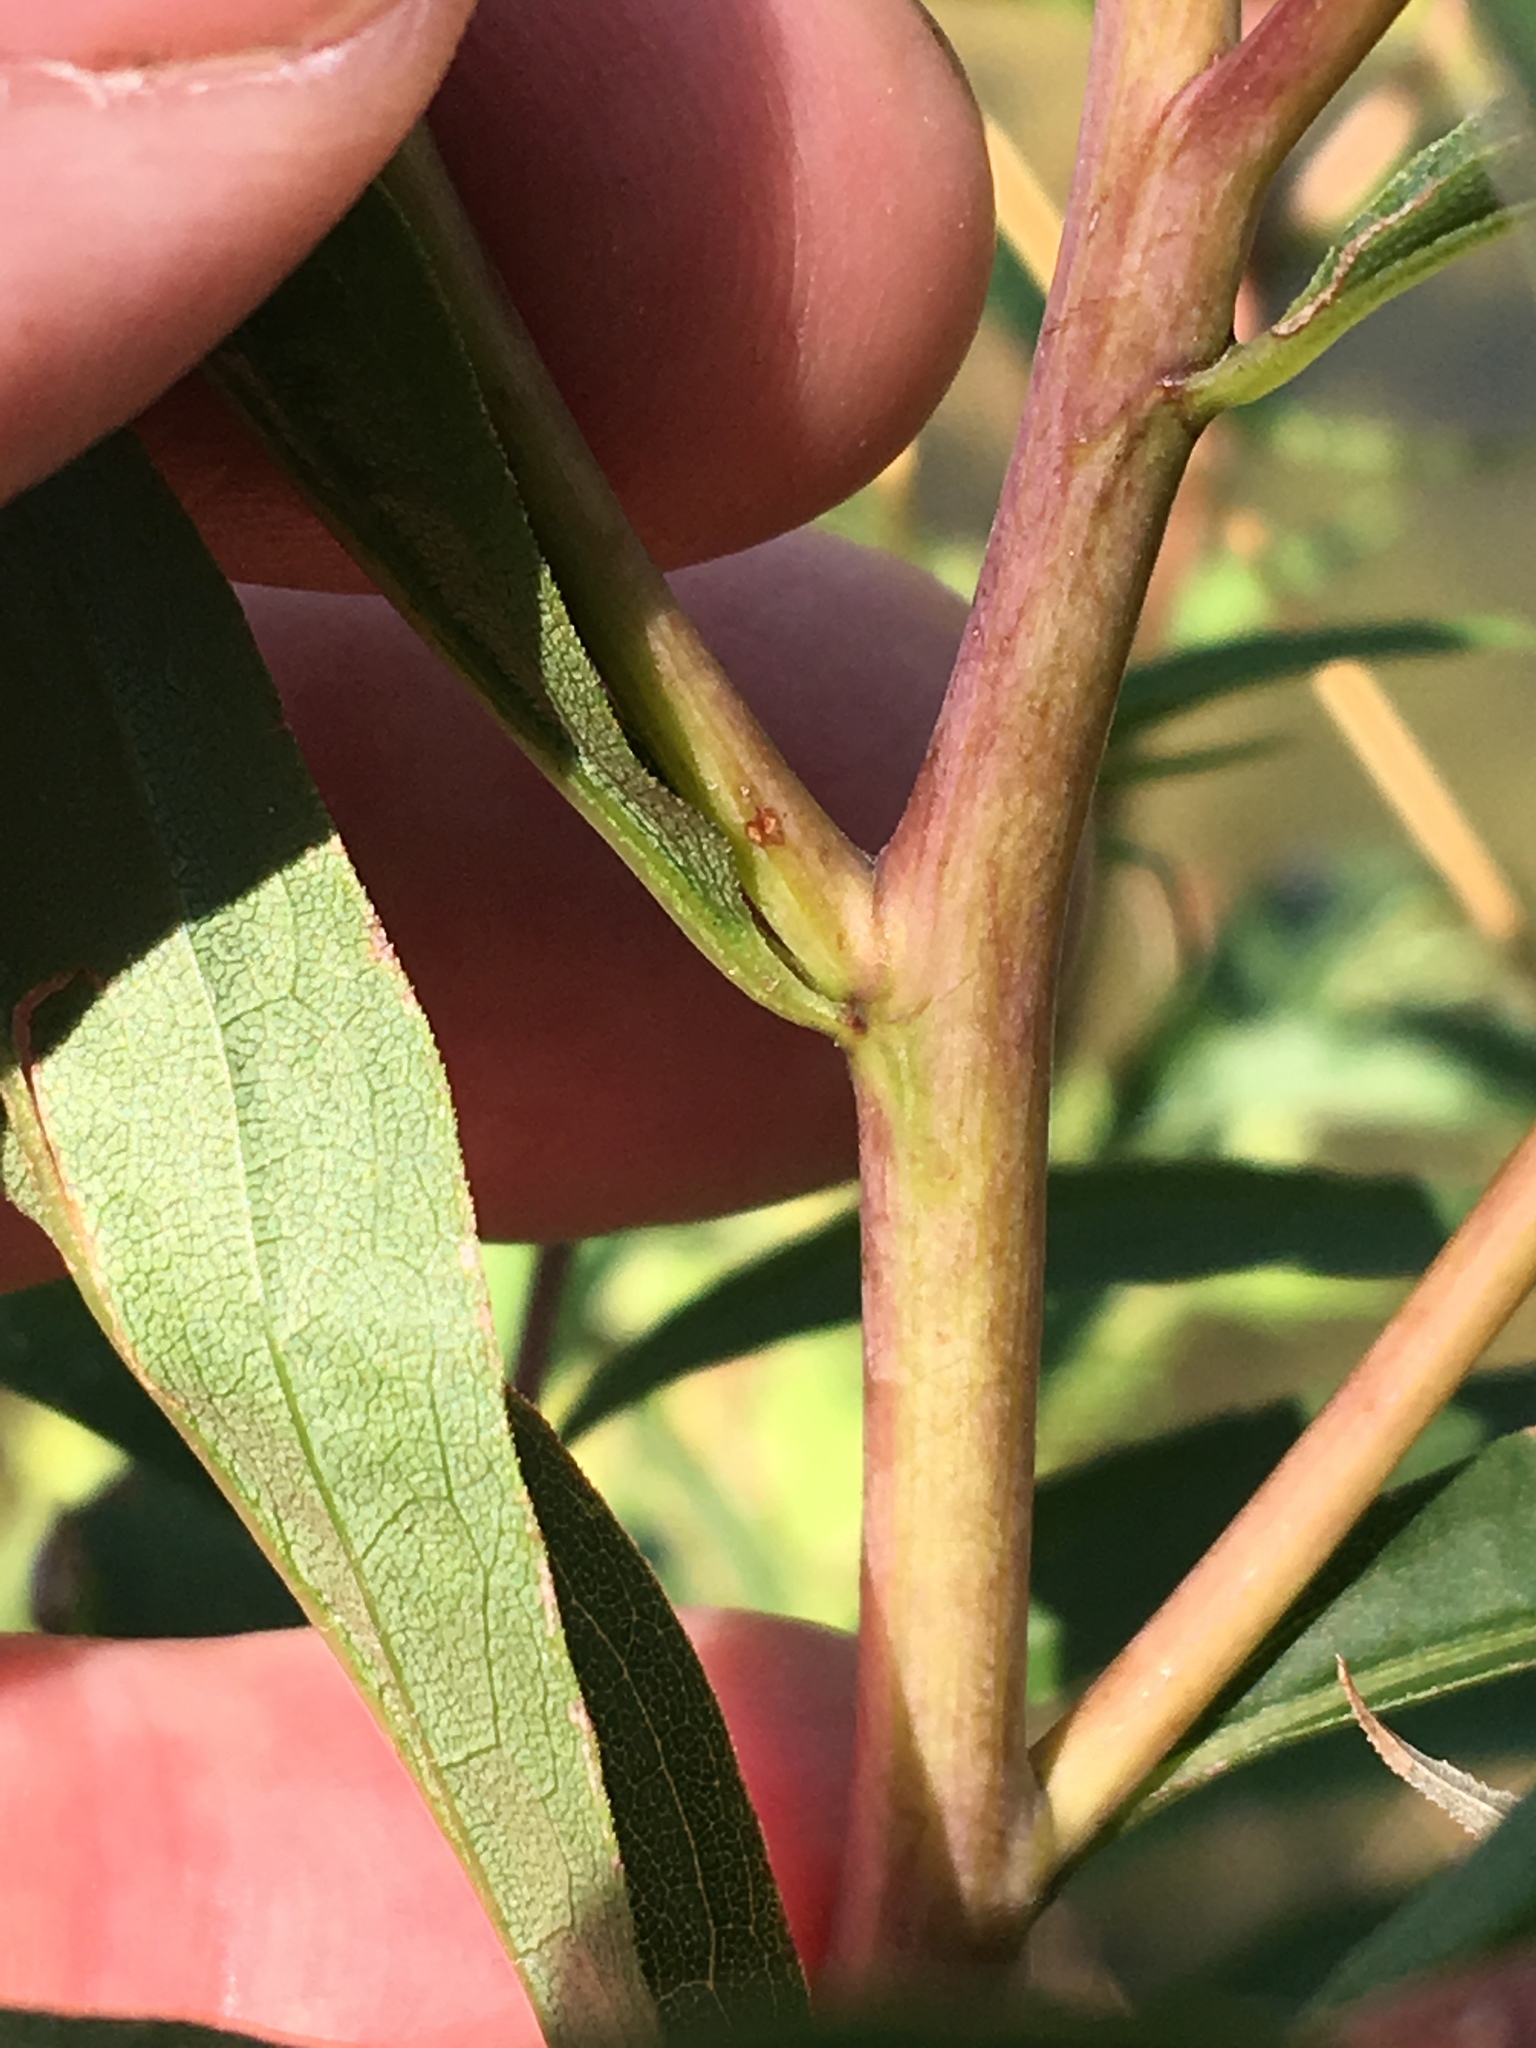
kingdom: Plantae
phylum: Tracheophyta
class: Magnoliopsida
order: Asterales
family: Asteraceae
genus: Solidago
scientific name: Solidago gigantea
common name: Giant goldenrod
